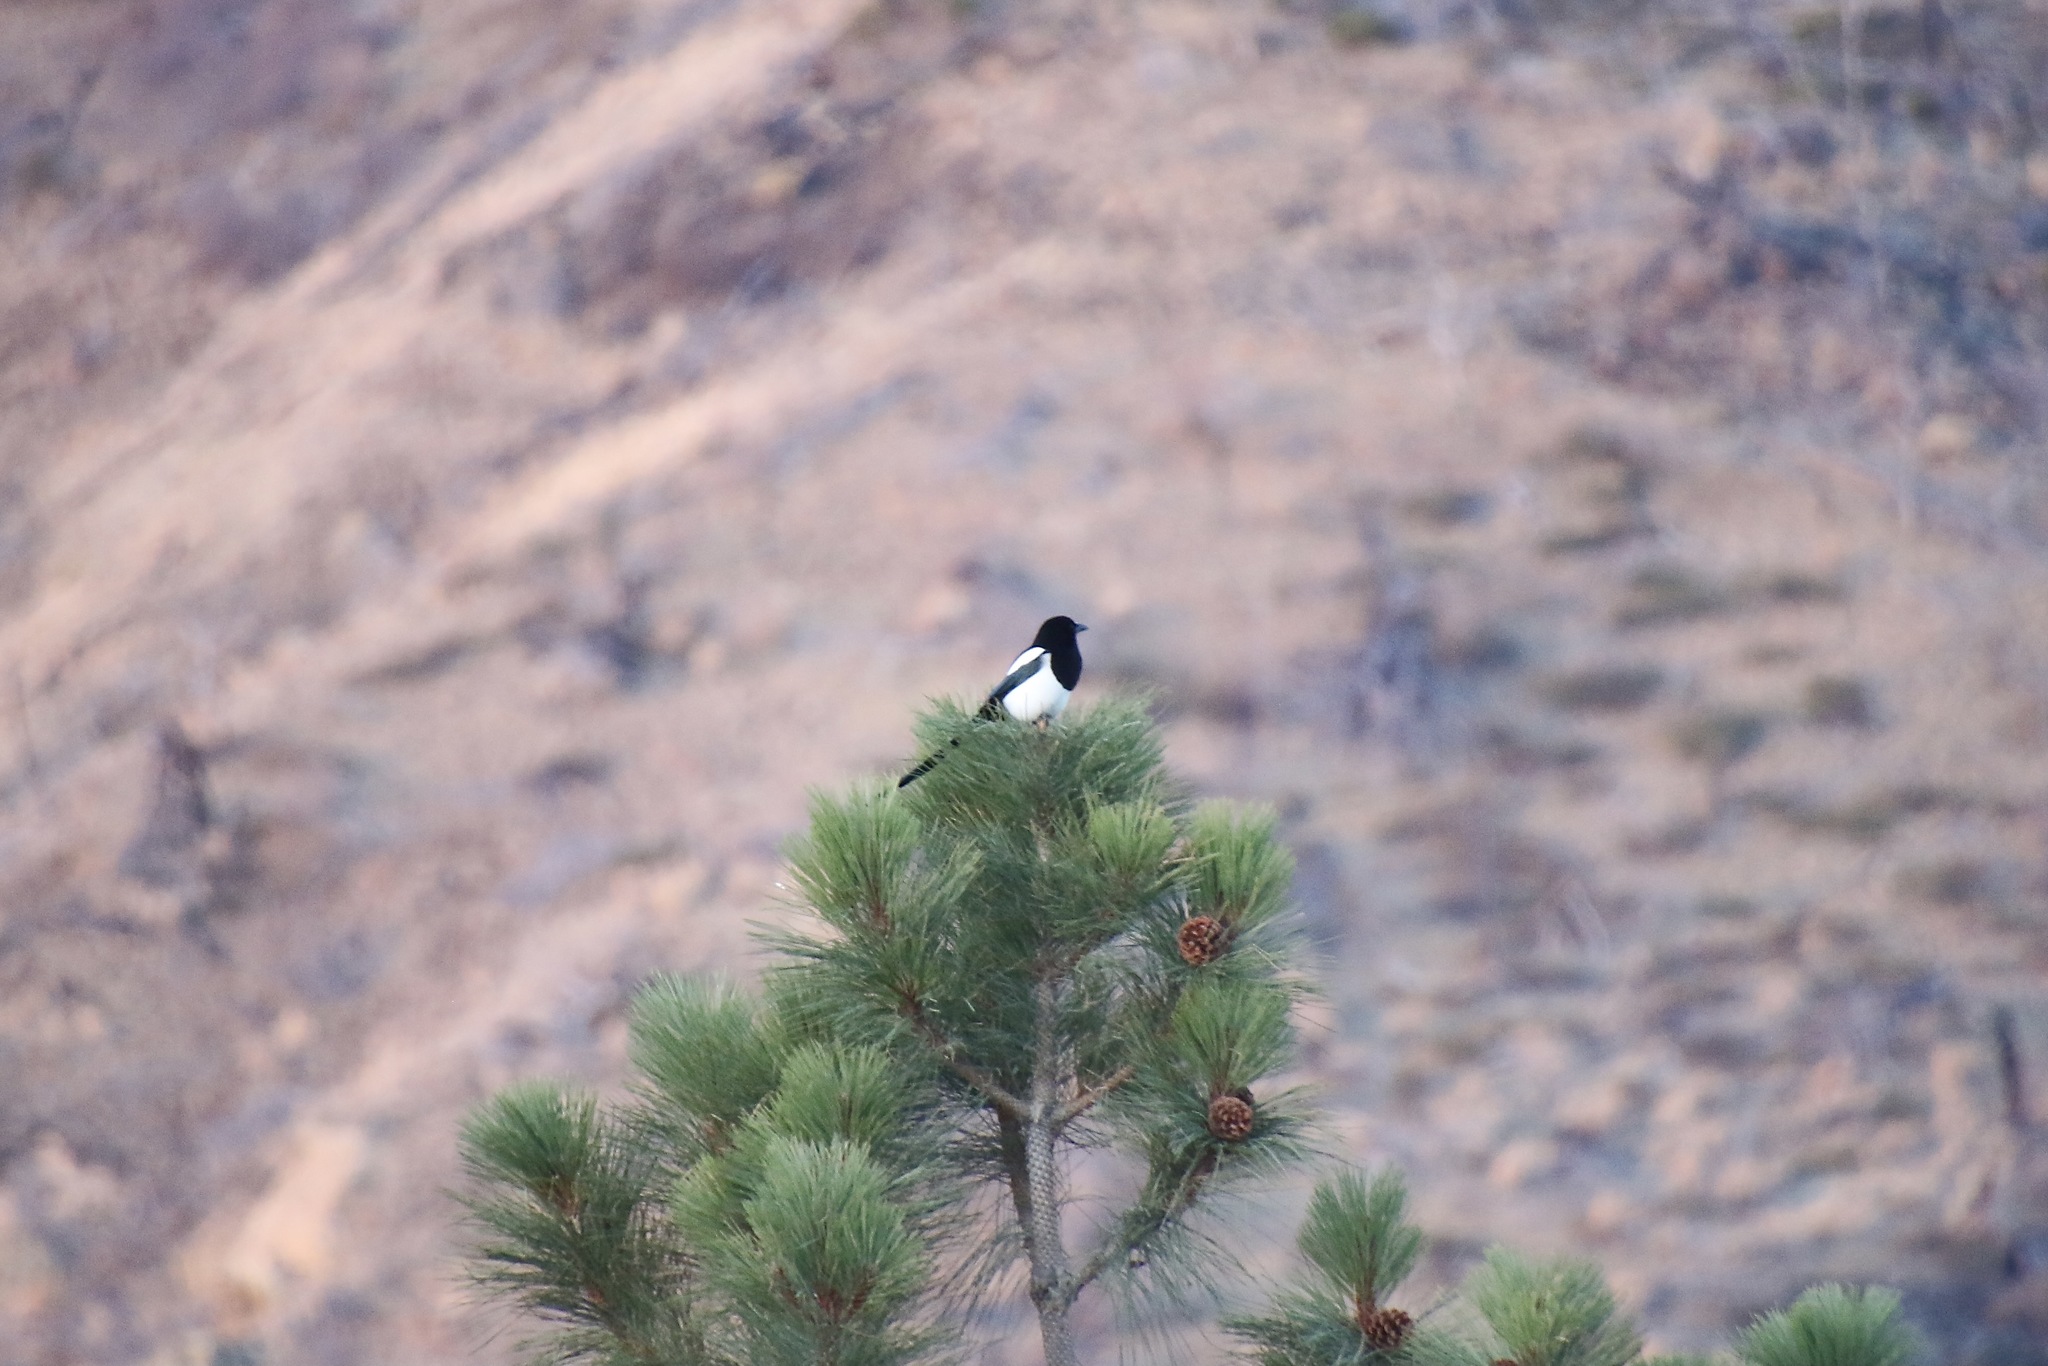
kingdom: Animalia
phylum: Chordata
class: Aves
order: Passeriformes
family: Corvidae
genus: Pica
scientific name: Pica hudsonia
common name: Black-billed magpie
